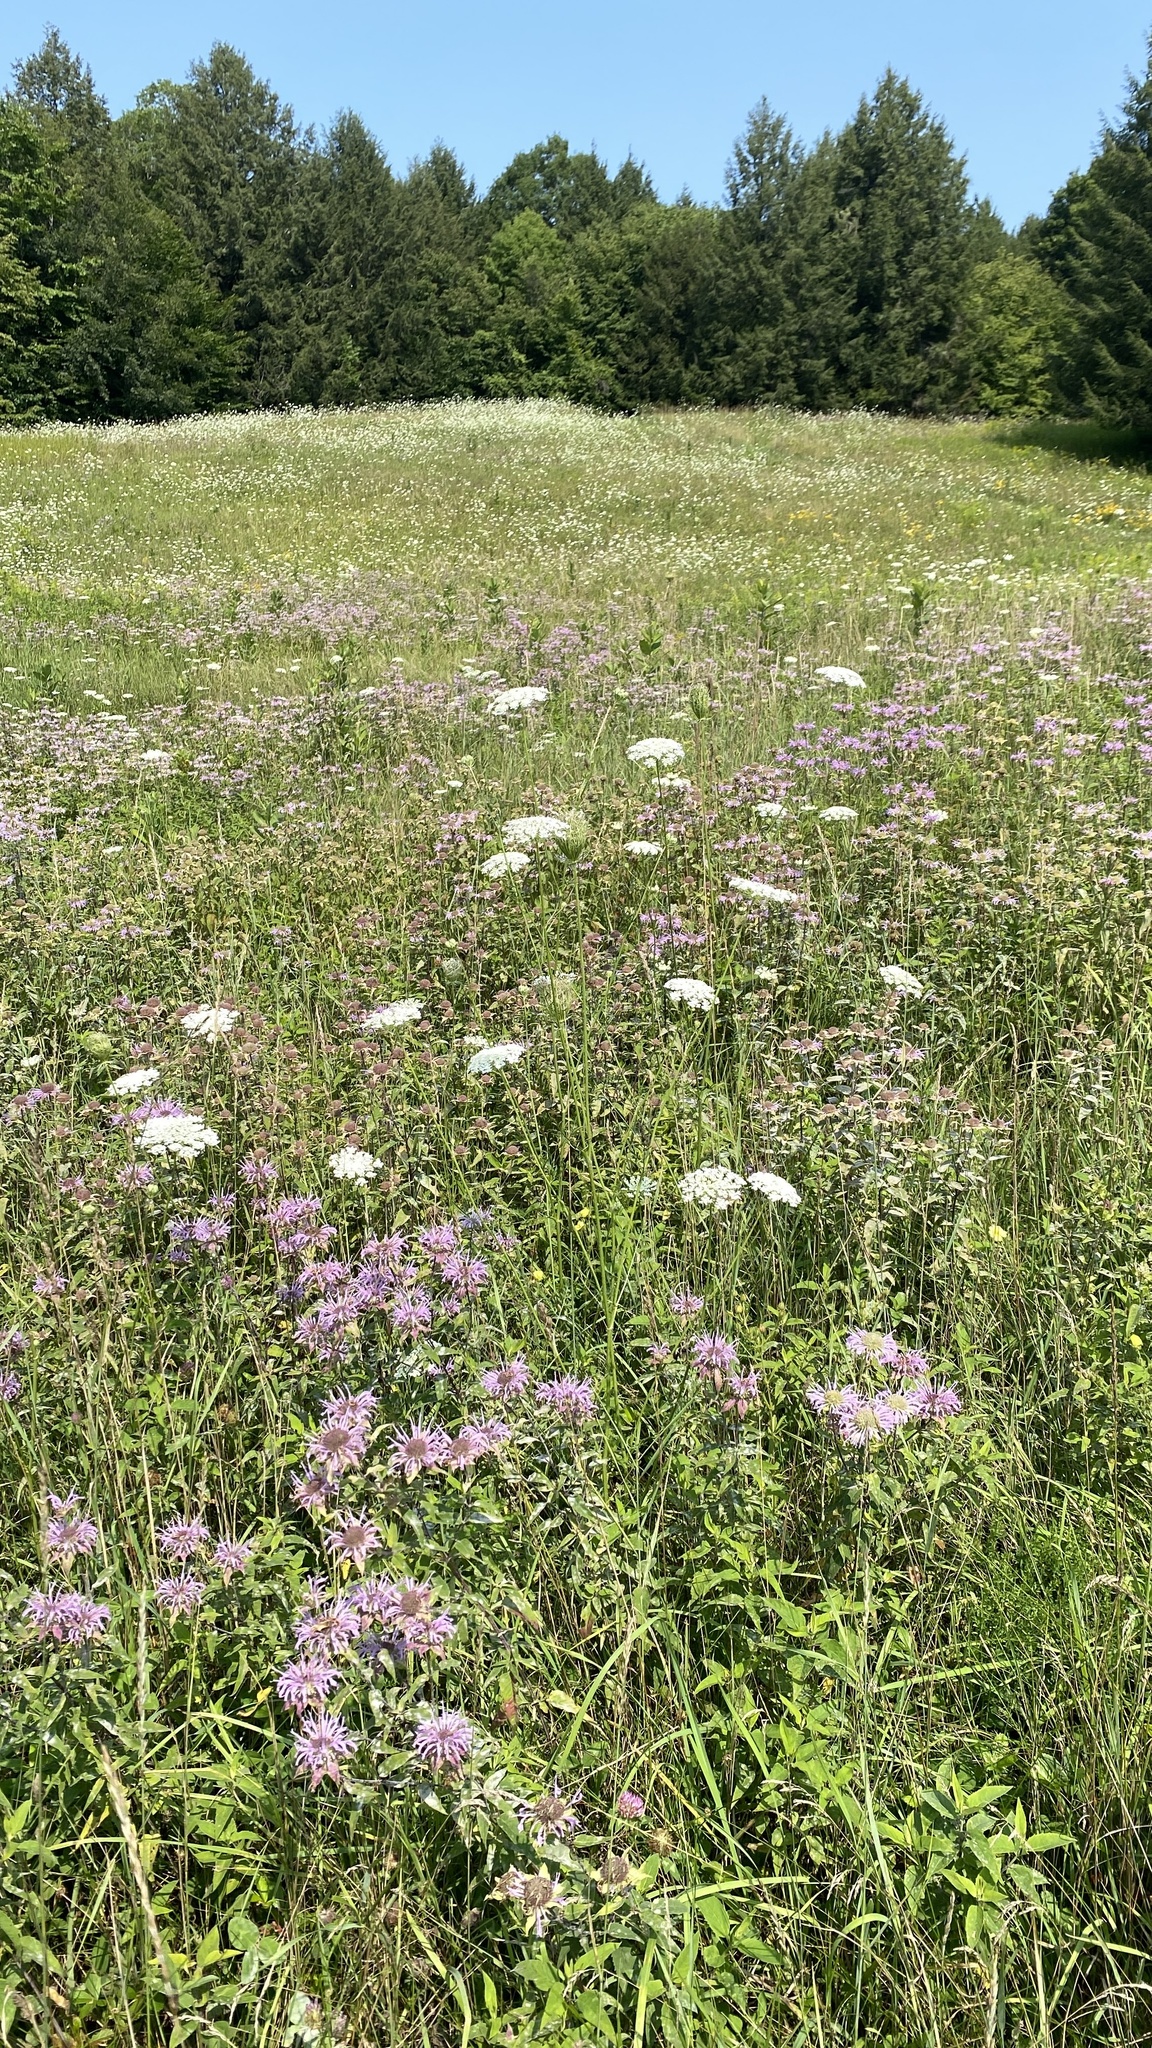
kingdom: Plantae
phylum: Tracheophyta
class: Magnoliopsida
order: Lamiales
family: Lamiaceae
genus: Monarda
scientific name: Monarda fistulosa
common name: Purple beebalm
